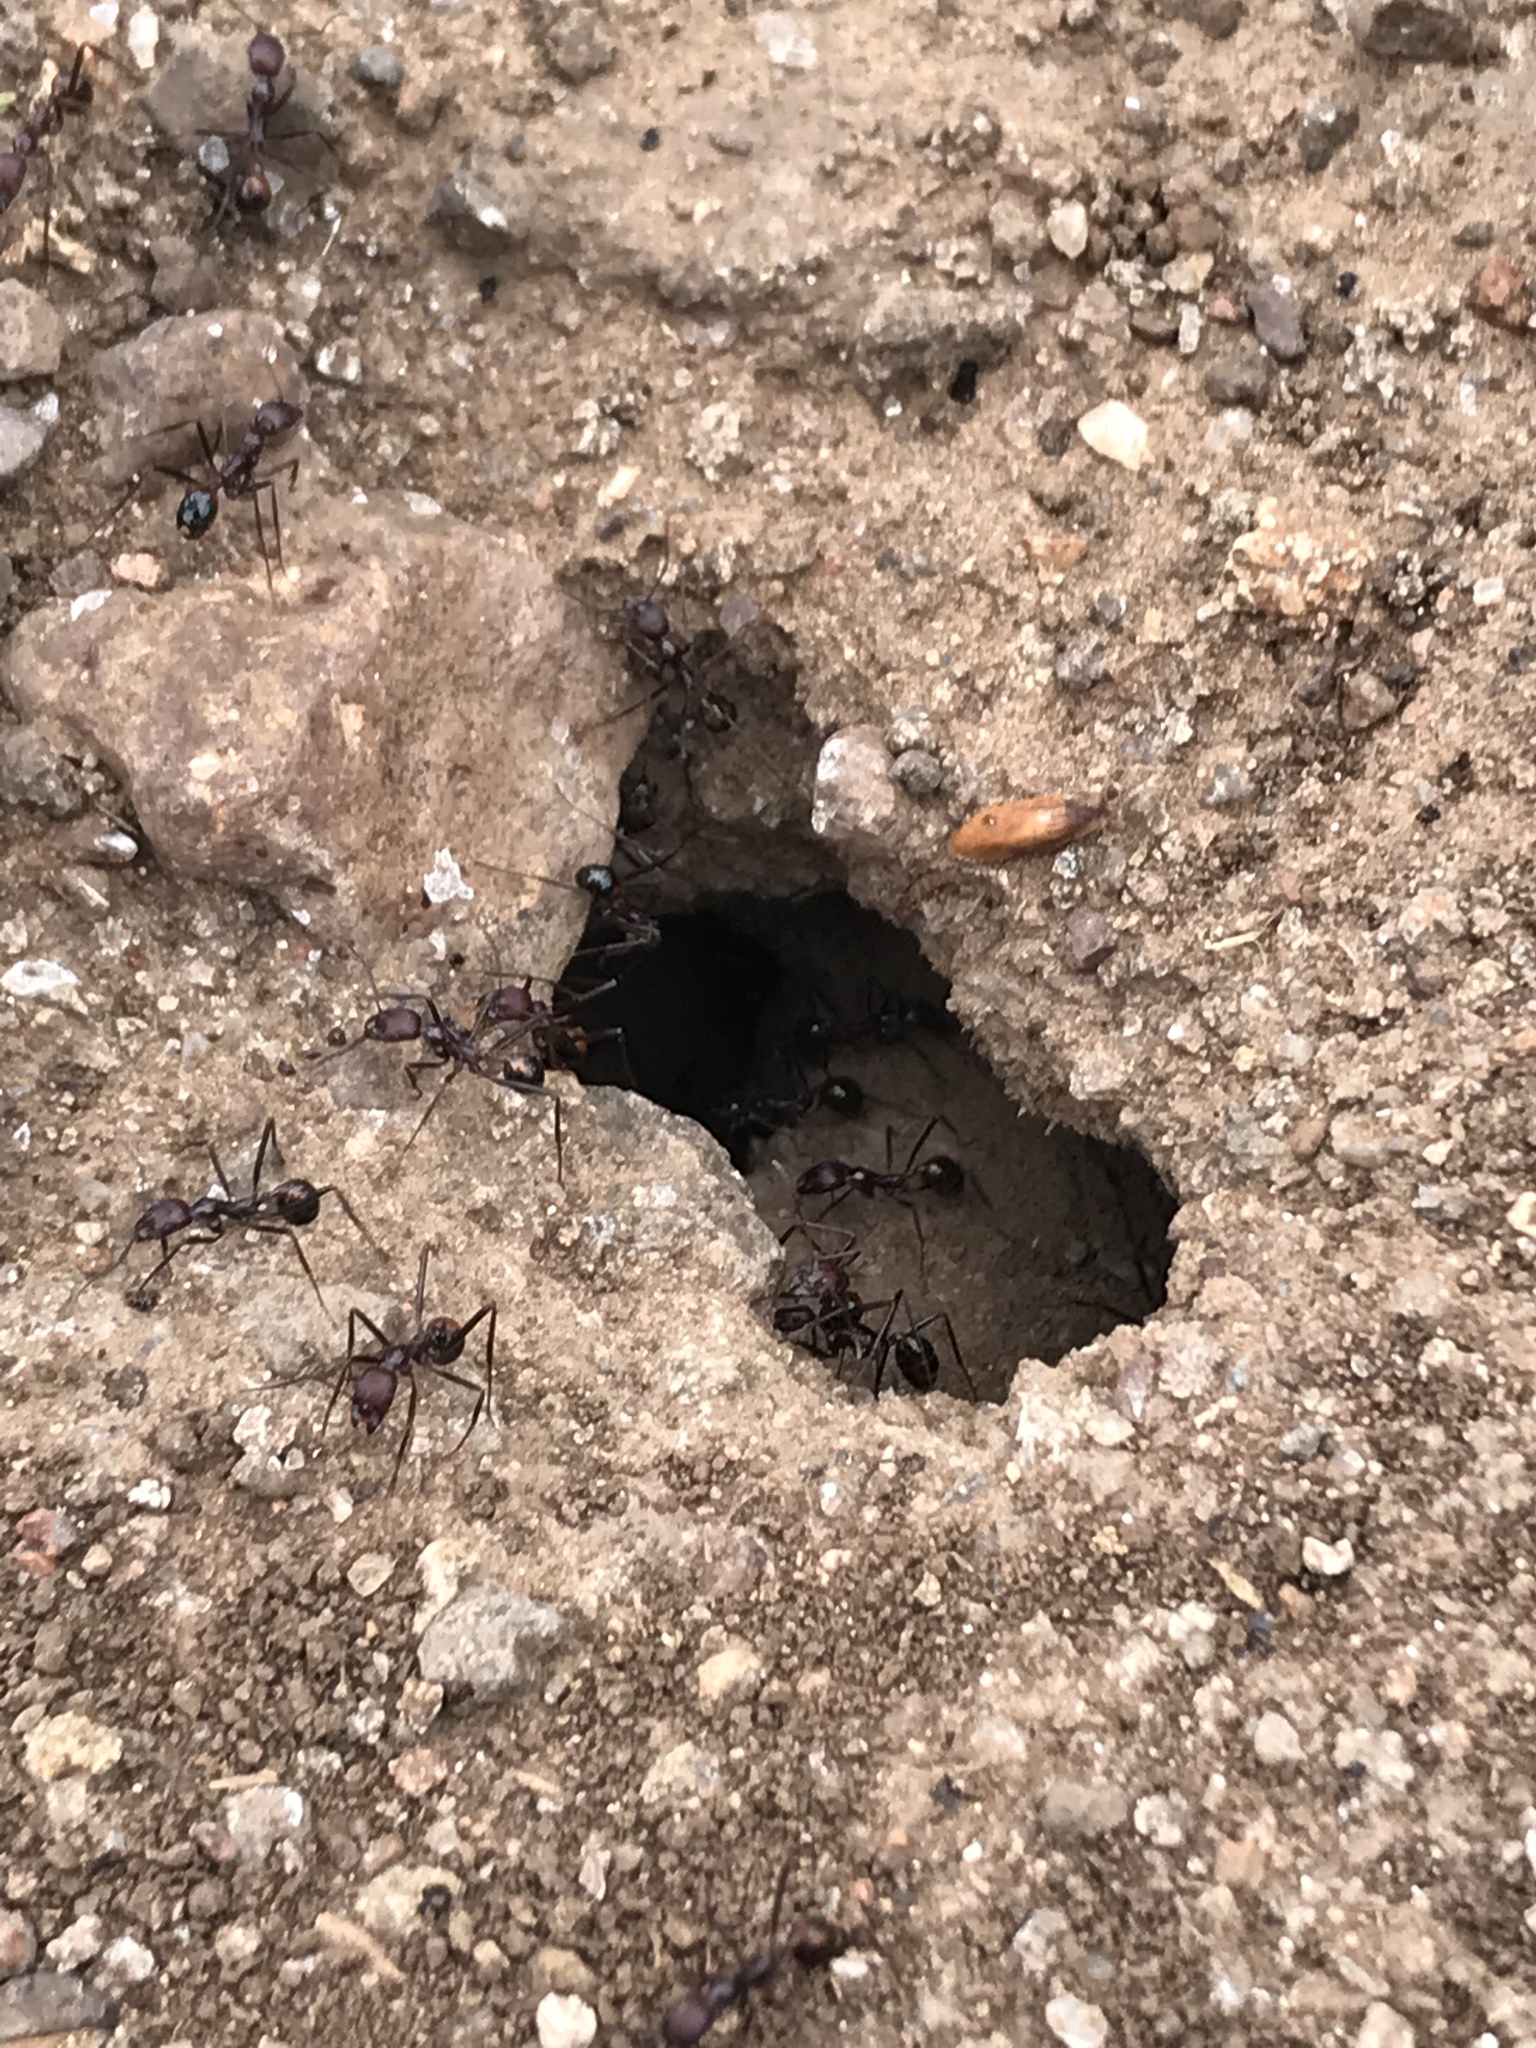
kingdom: Animalia
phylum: Arthropoda
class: Insecta
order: Hymenoptera
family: Formicidae
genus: Novomessor
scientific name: Novomessor cockerelli
